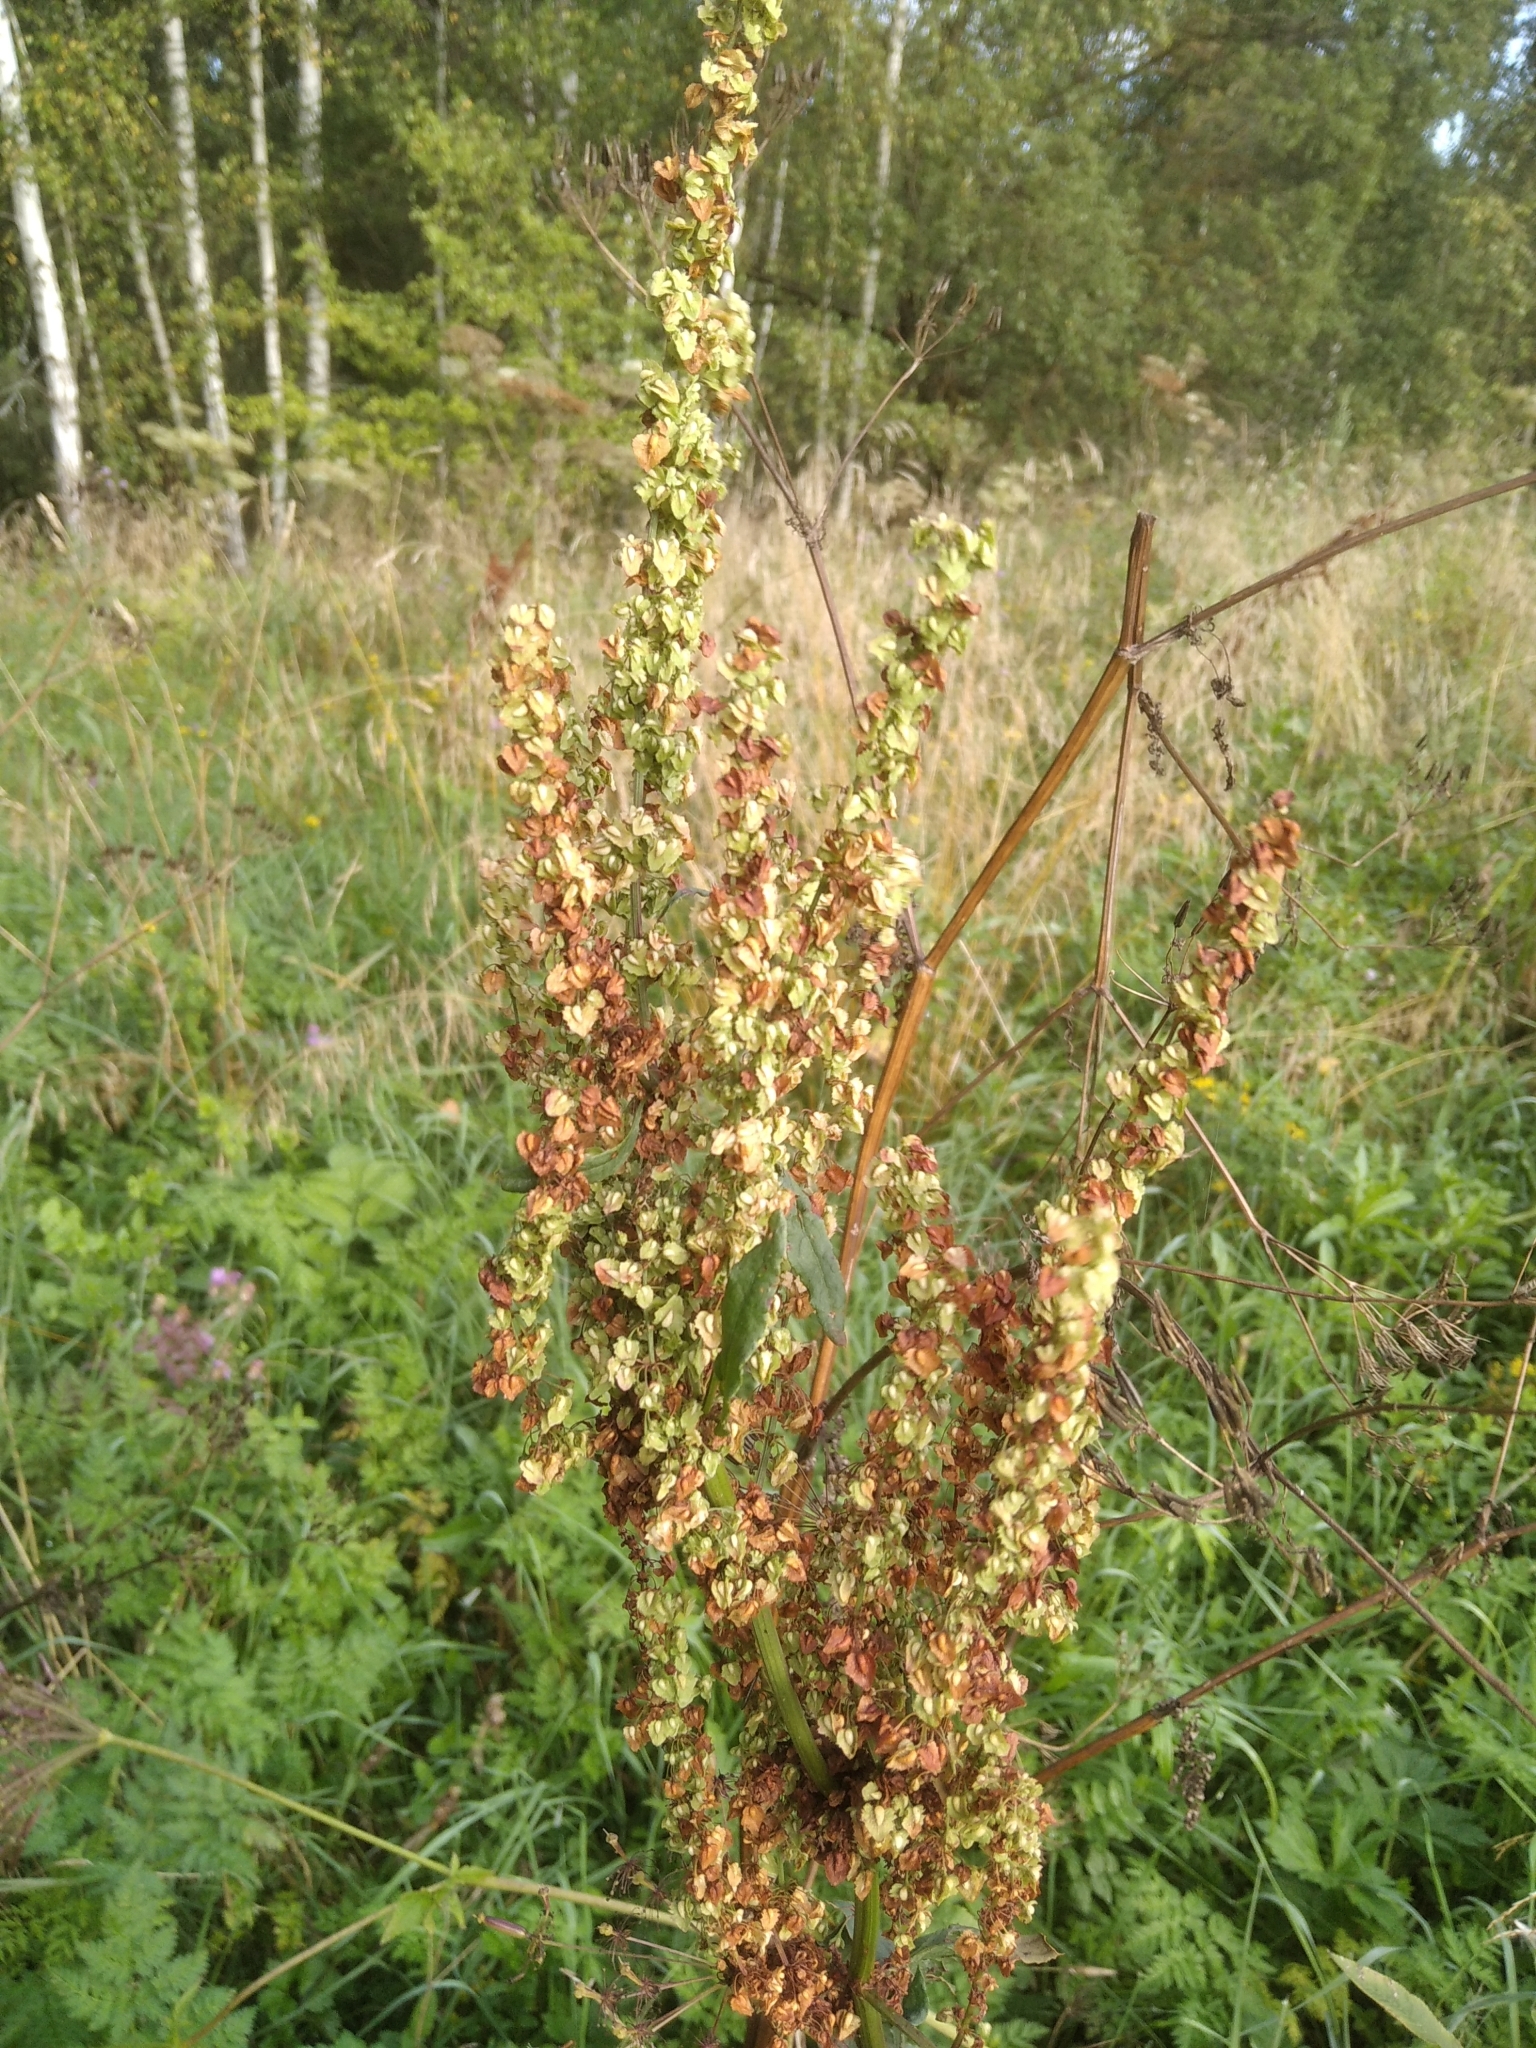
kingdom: Plantae
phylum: Tracheophyta
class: Magnoliopsida
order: Caryophyllales
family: Polygonaceae
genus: Rumex
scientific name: Rumex crispus
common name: Curled dock
